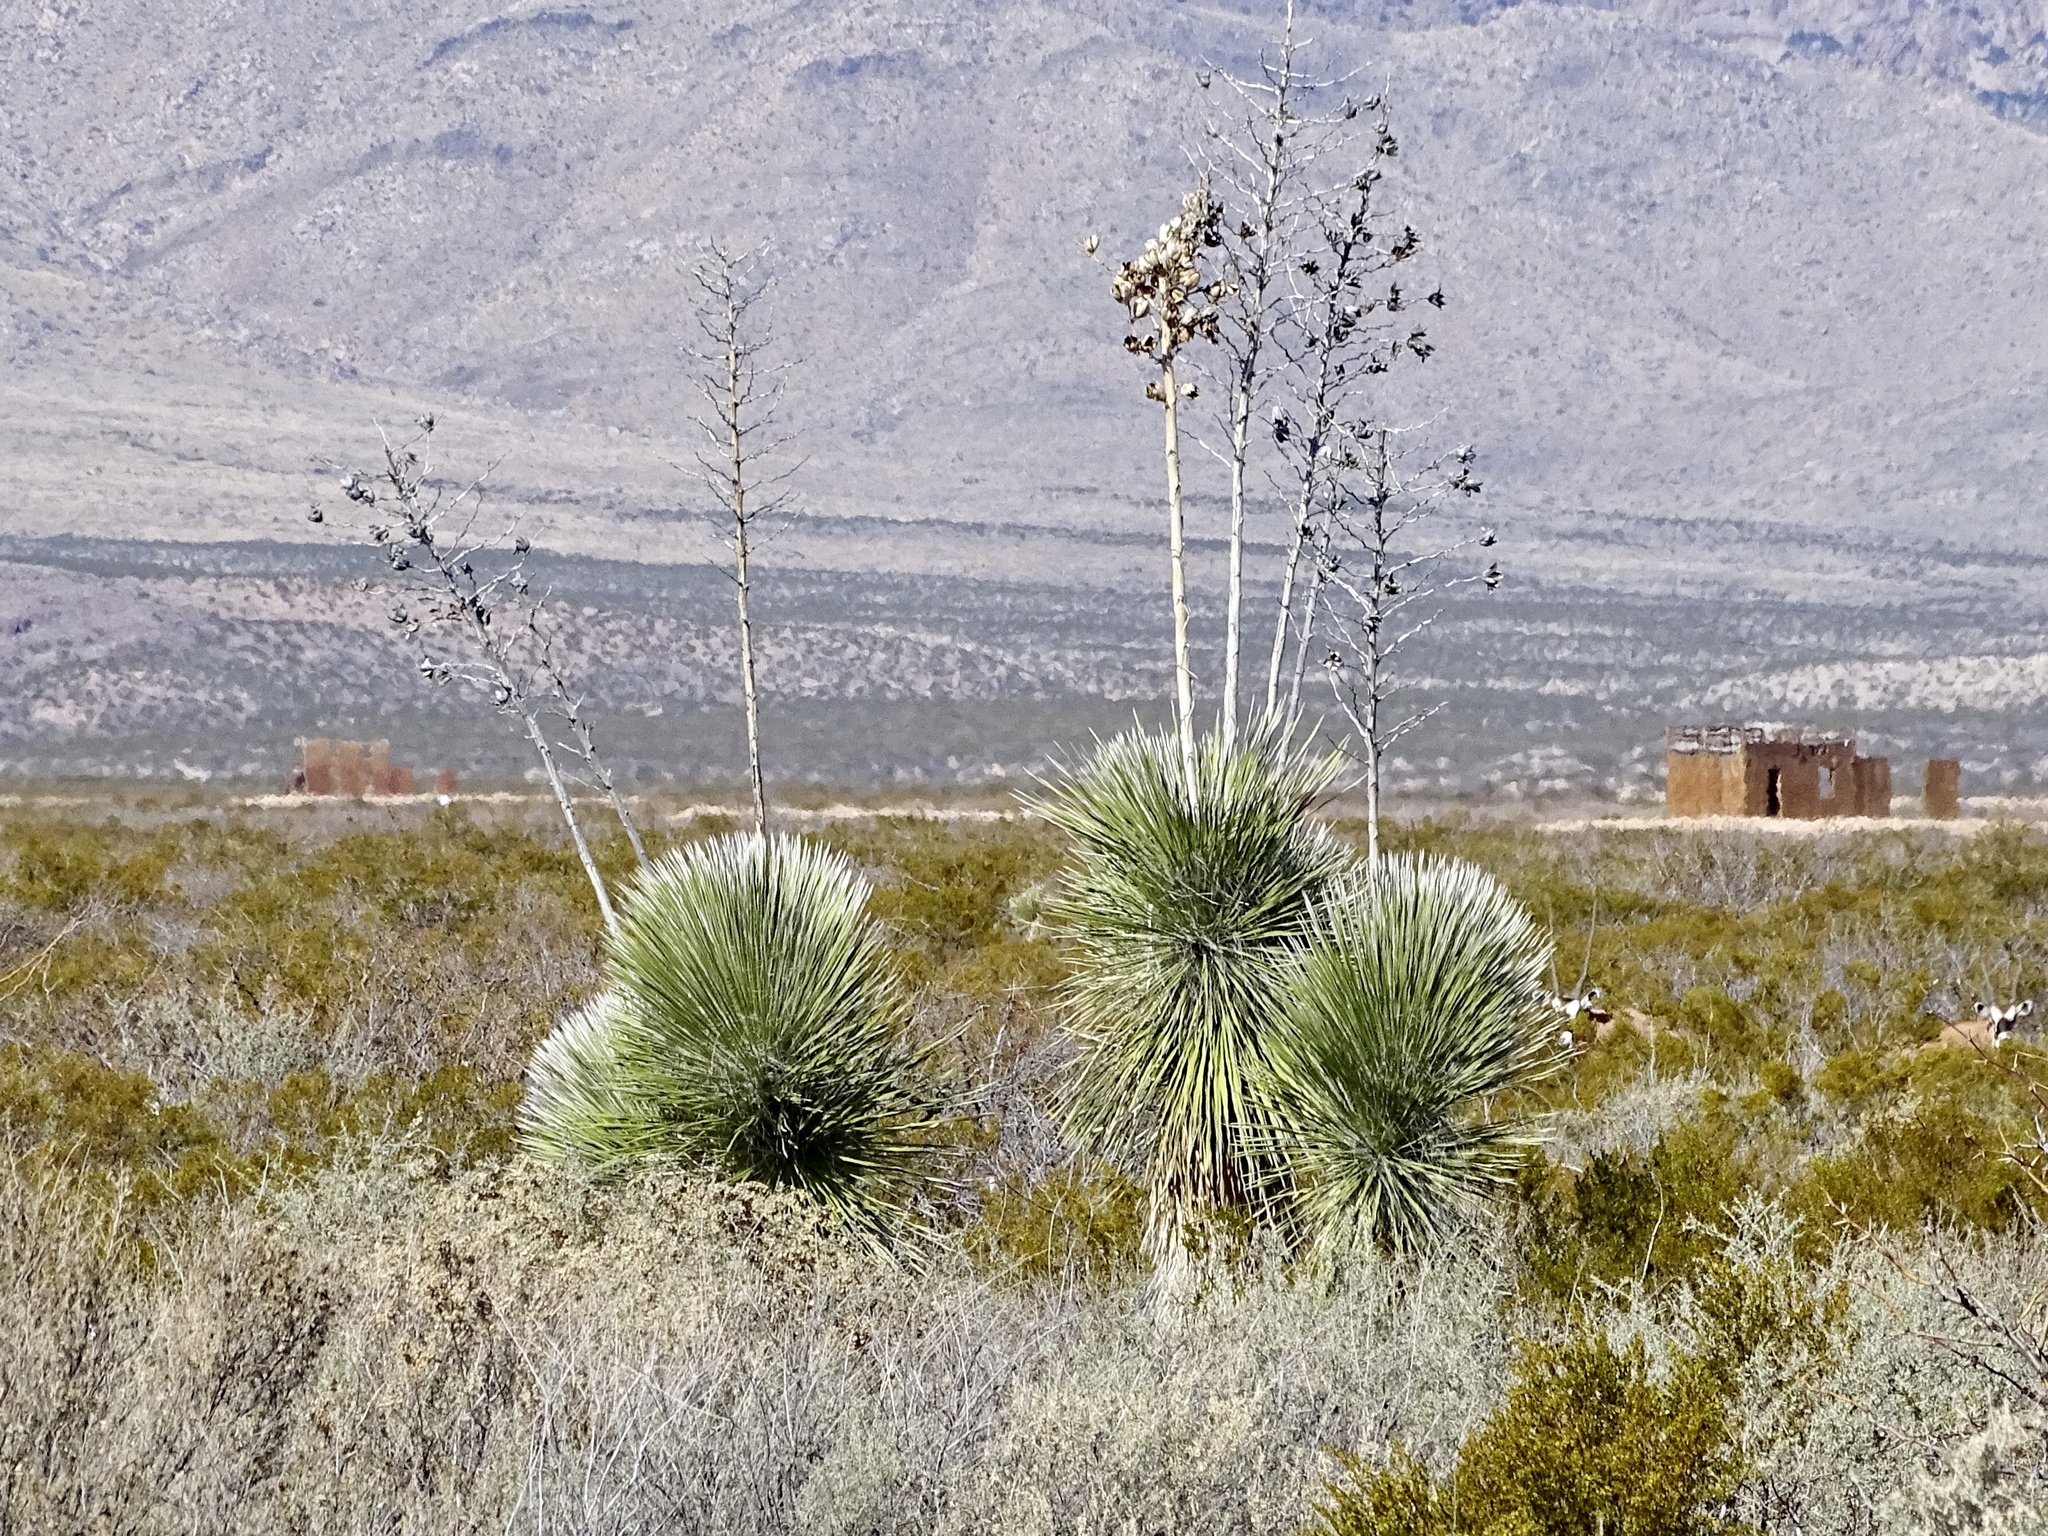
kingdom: Plantae
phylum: Tracheophyta
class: Liliopsida
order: Asparagales
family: Asparagaceae
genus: Yucca
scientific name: Yucca elata
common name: Palmella
